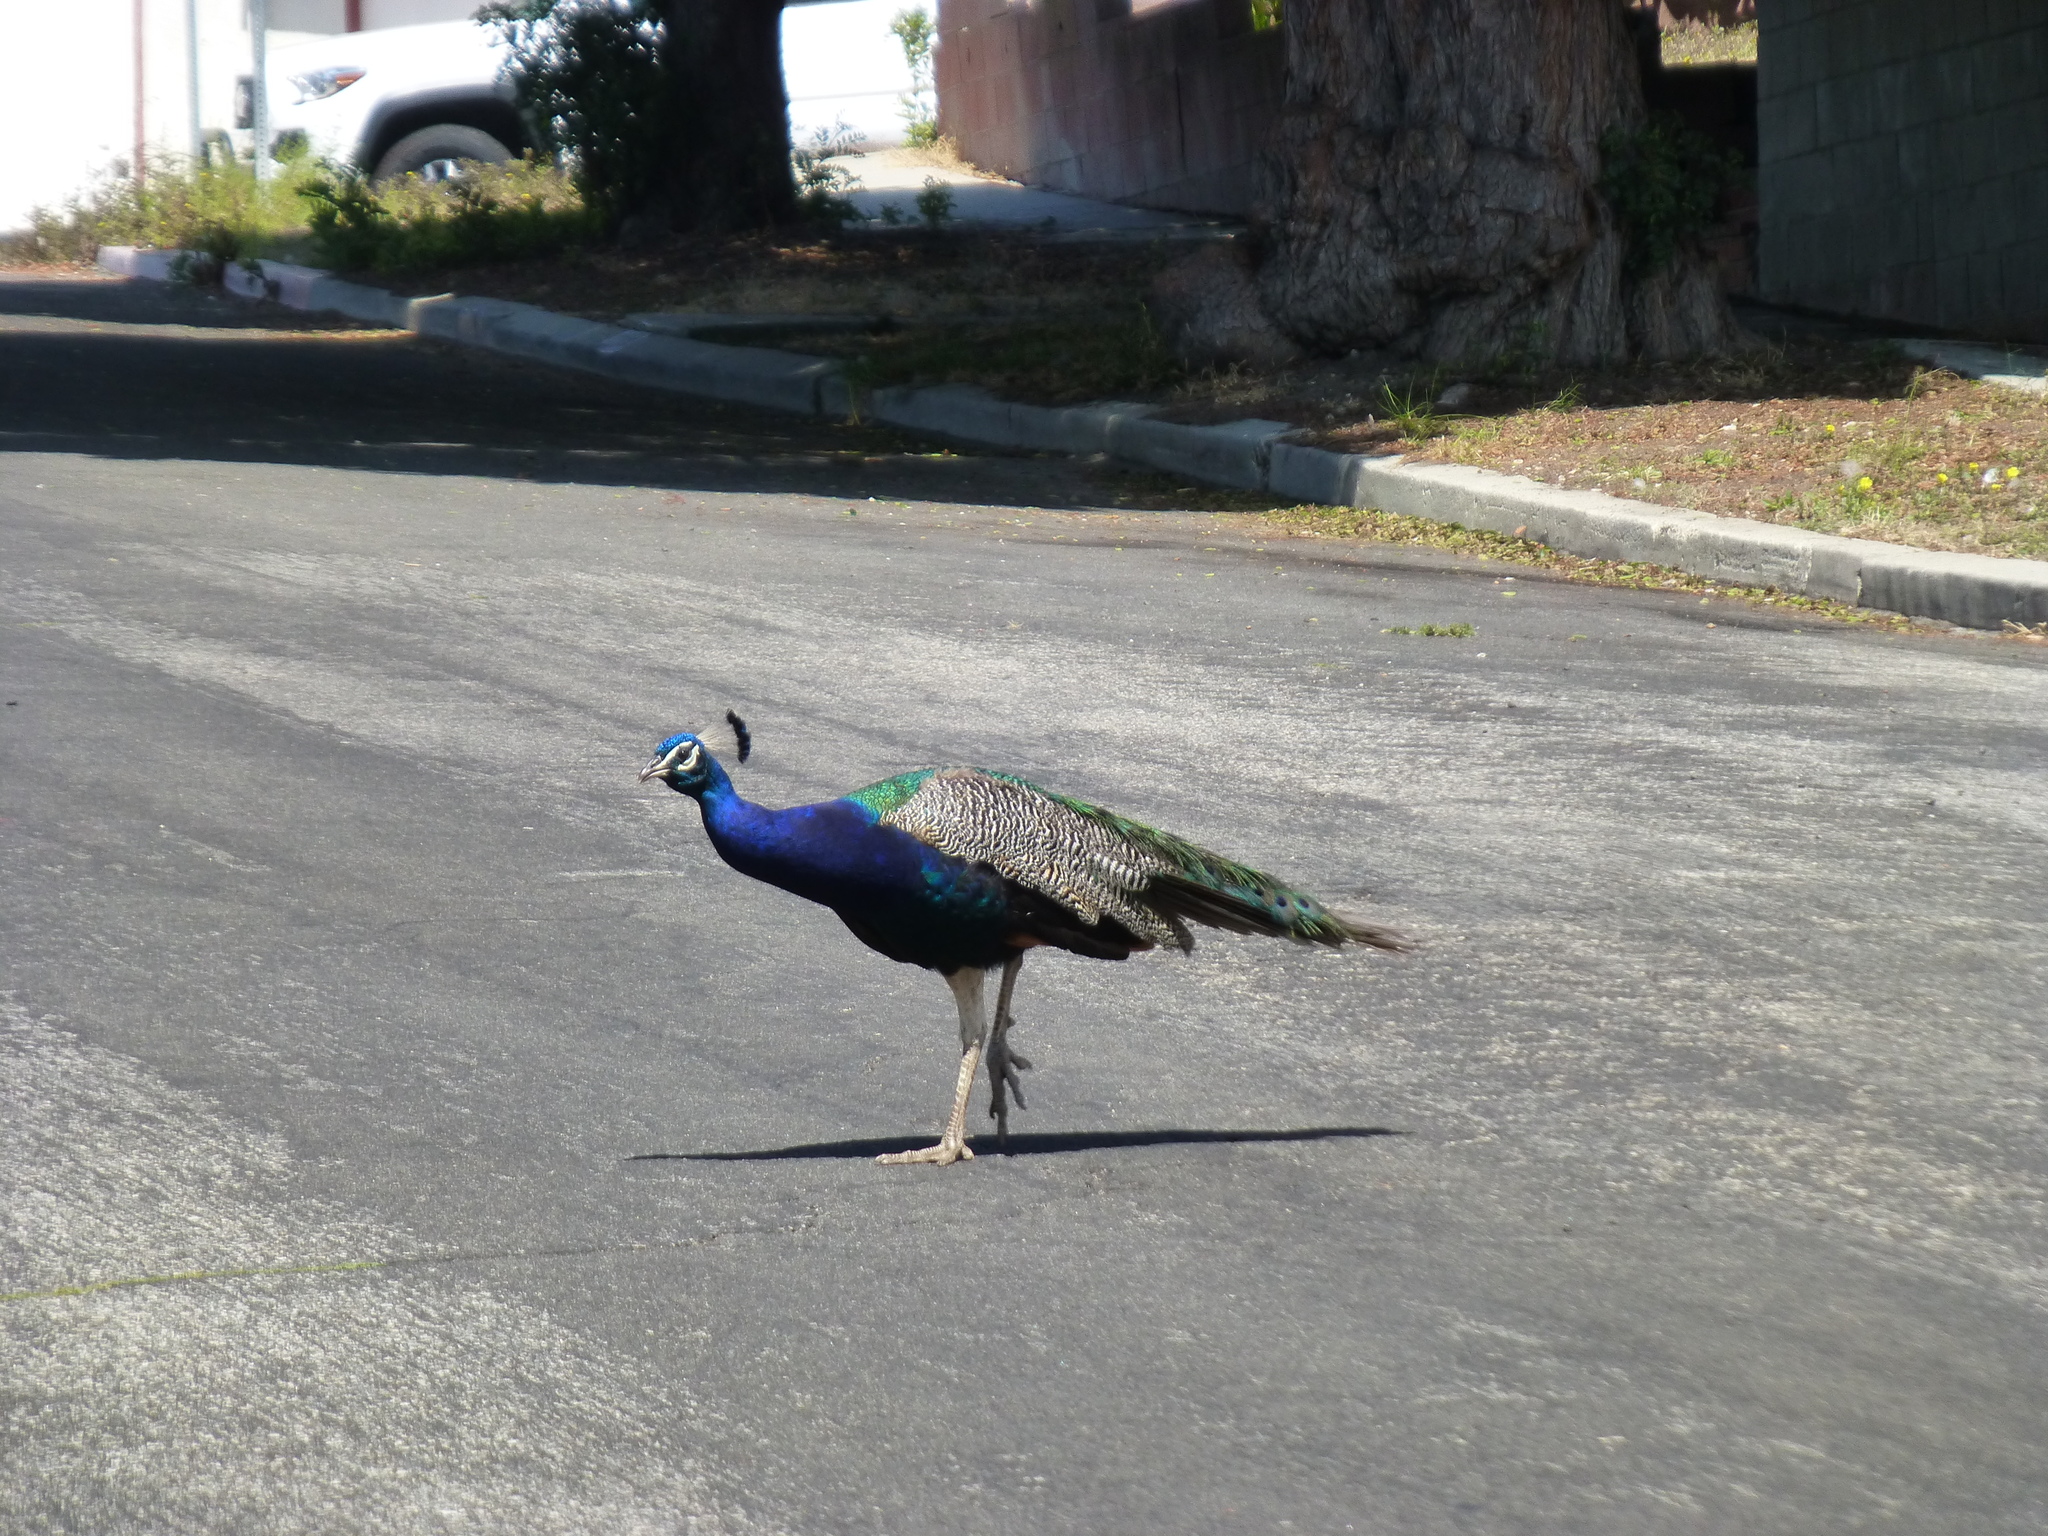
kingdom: Animalia
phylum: Chordata
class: Aves
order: Galliformes
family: Phasianidae
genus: Pavo
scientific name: Pavo cristatus
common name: Indian peafowl
